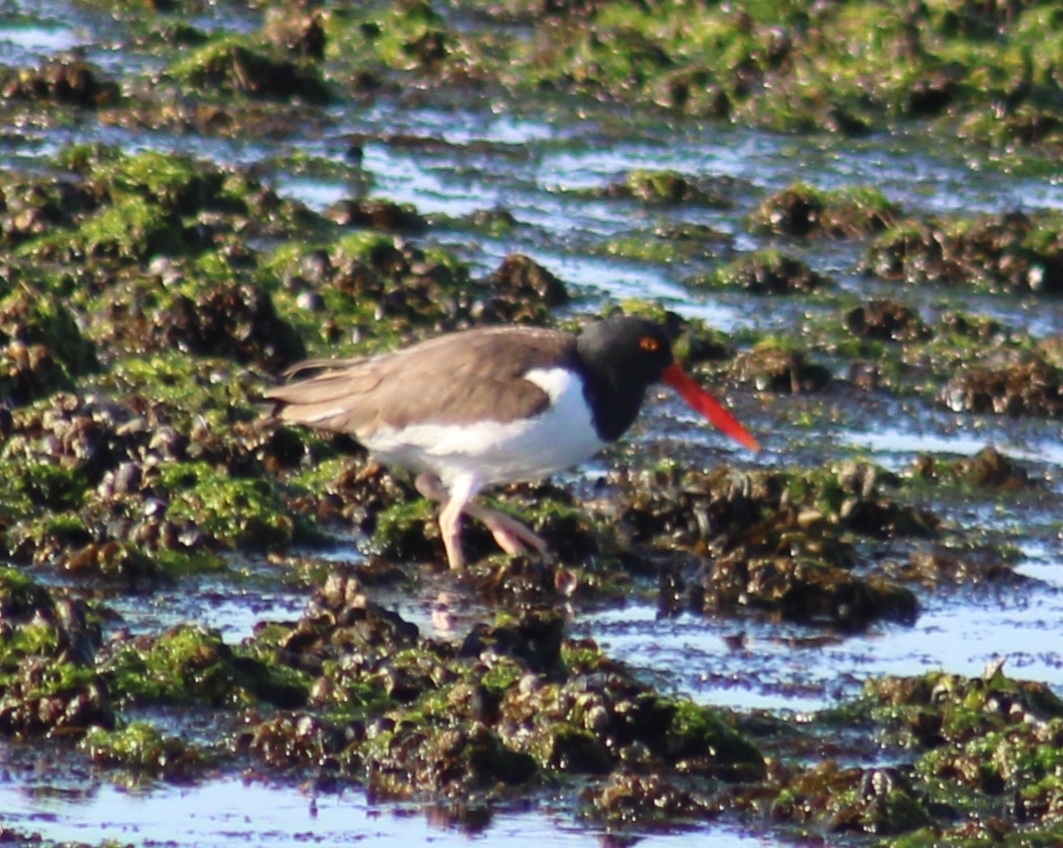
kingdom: Animalia
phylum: Chordata
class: Aves
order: Charadriiformes
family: Haematopodidae
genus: Haematopus
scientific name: Haematopus palliatus
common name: American oystercatcher
